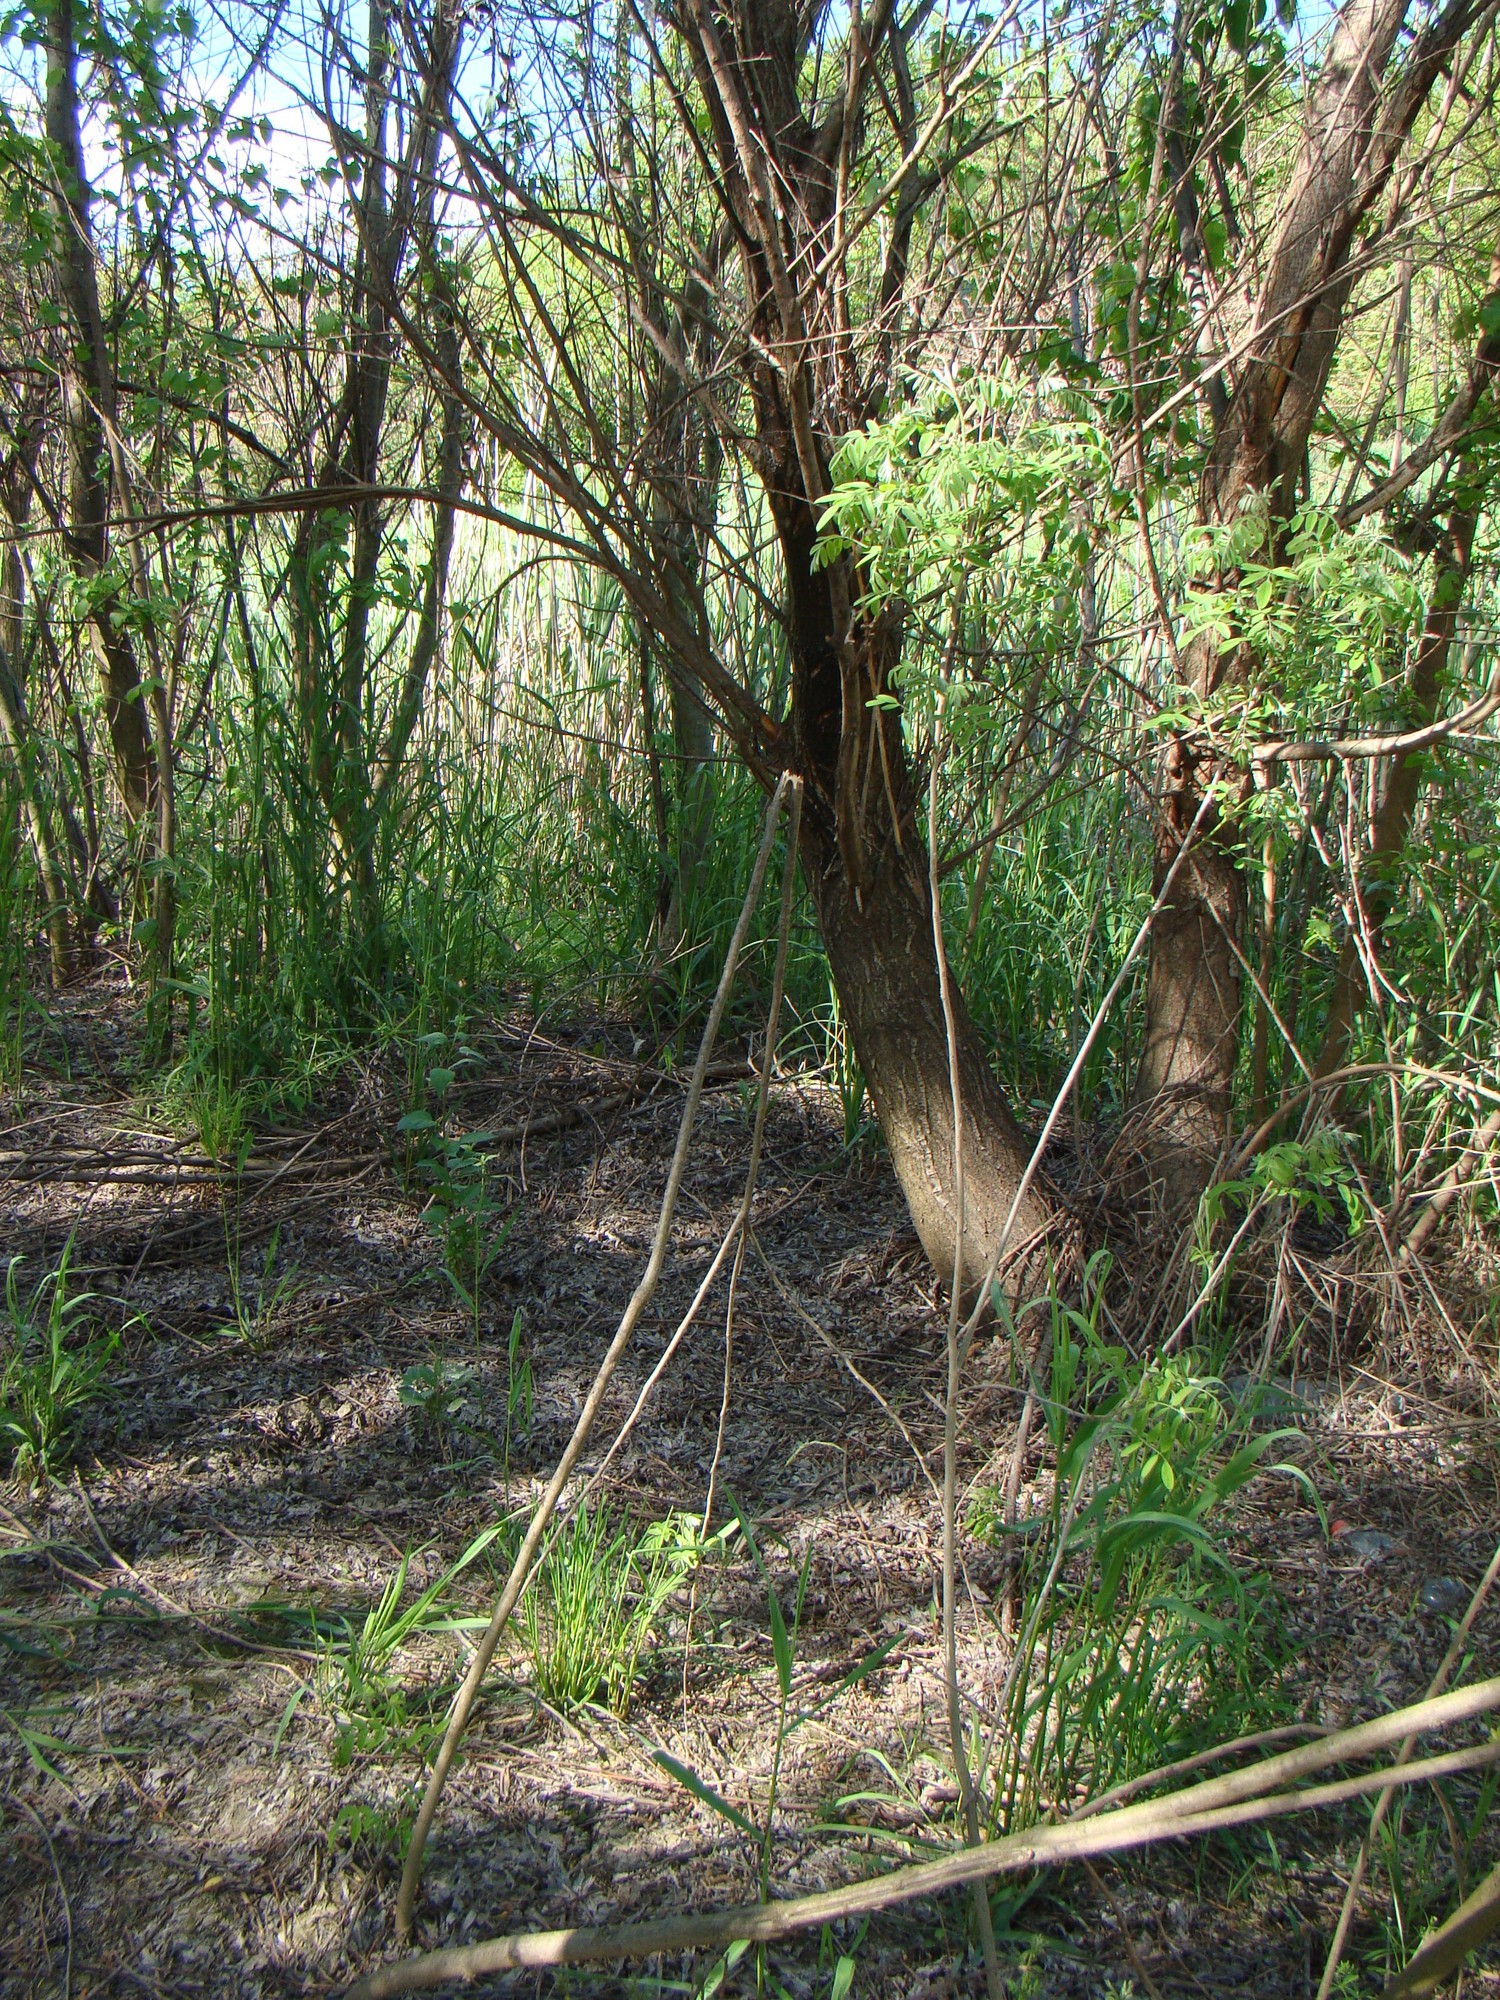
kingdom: Plantae
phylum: Tracheophyta
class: Magnoliopsida
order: Fabales
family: Fabaceae
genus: Amorpha
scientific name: Amorpha fruticosa
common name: False indigo
